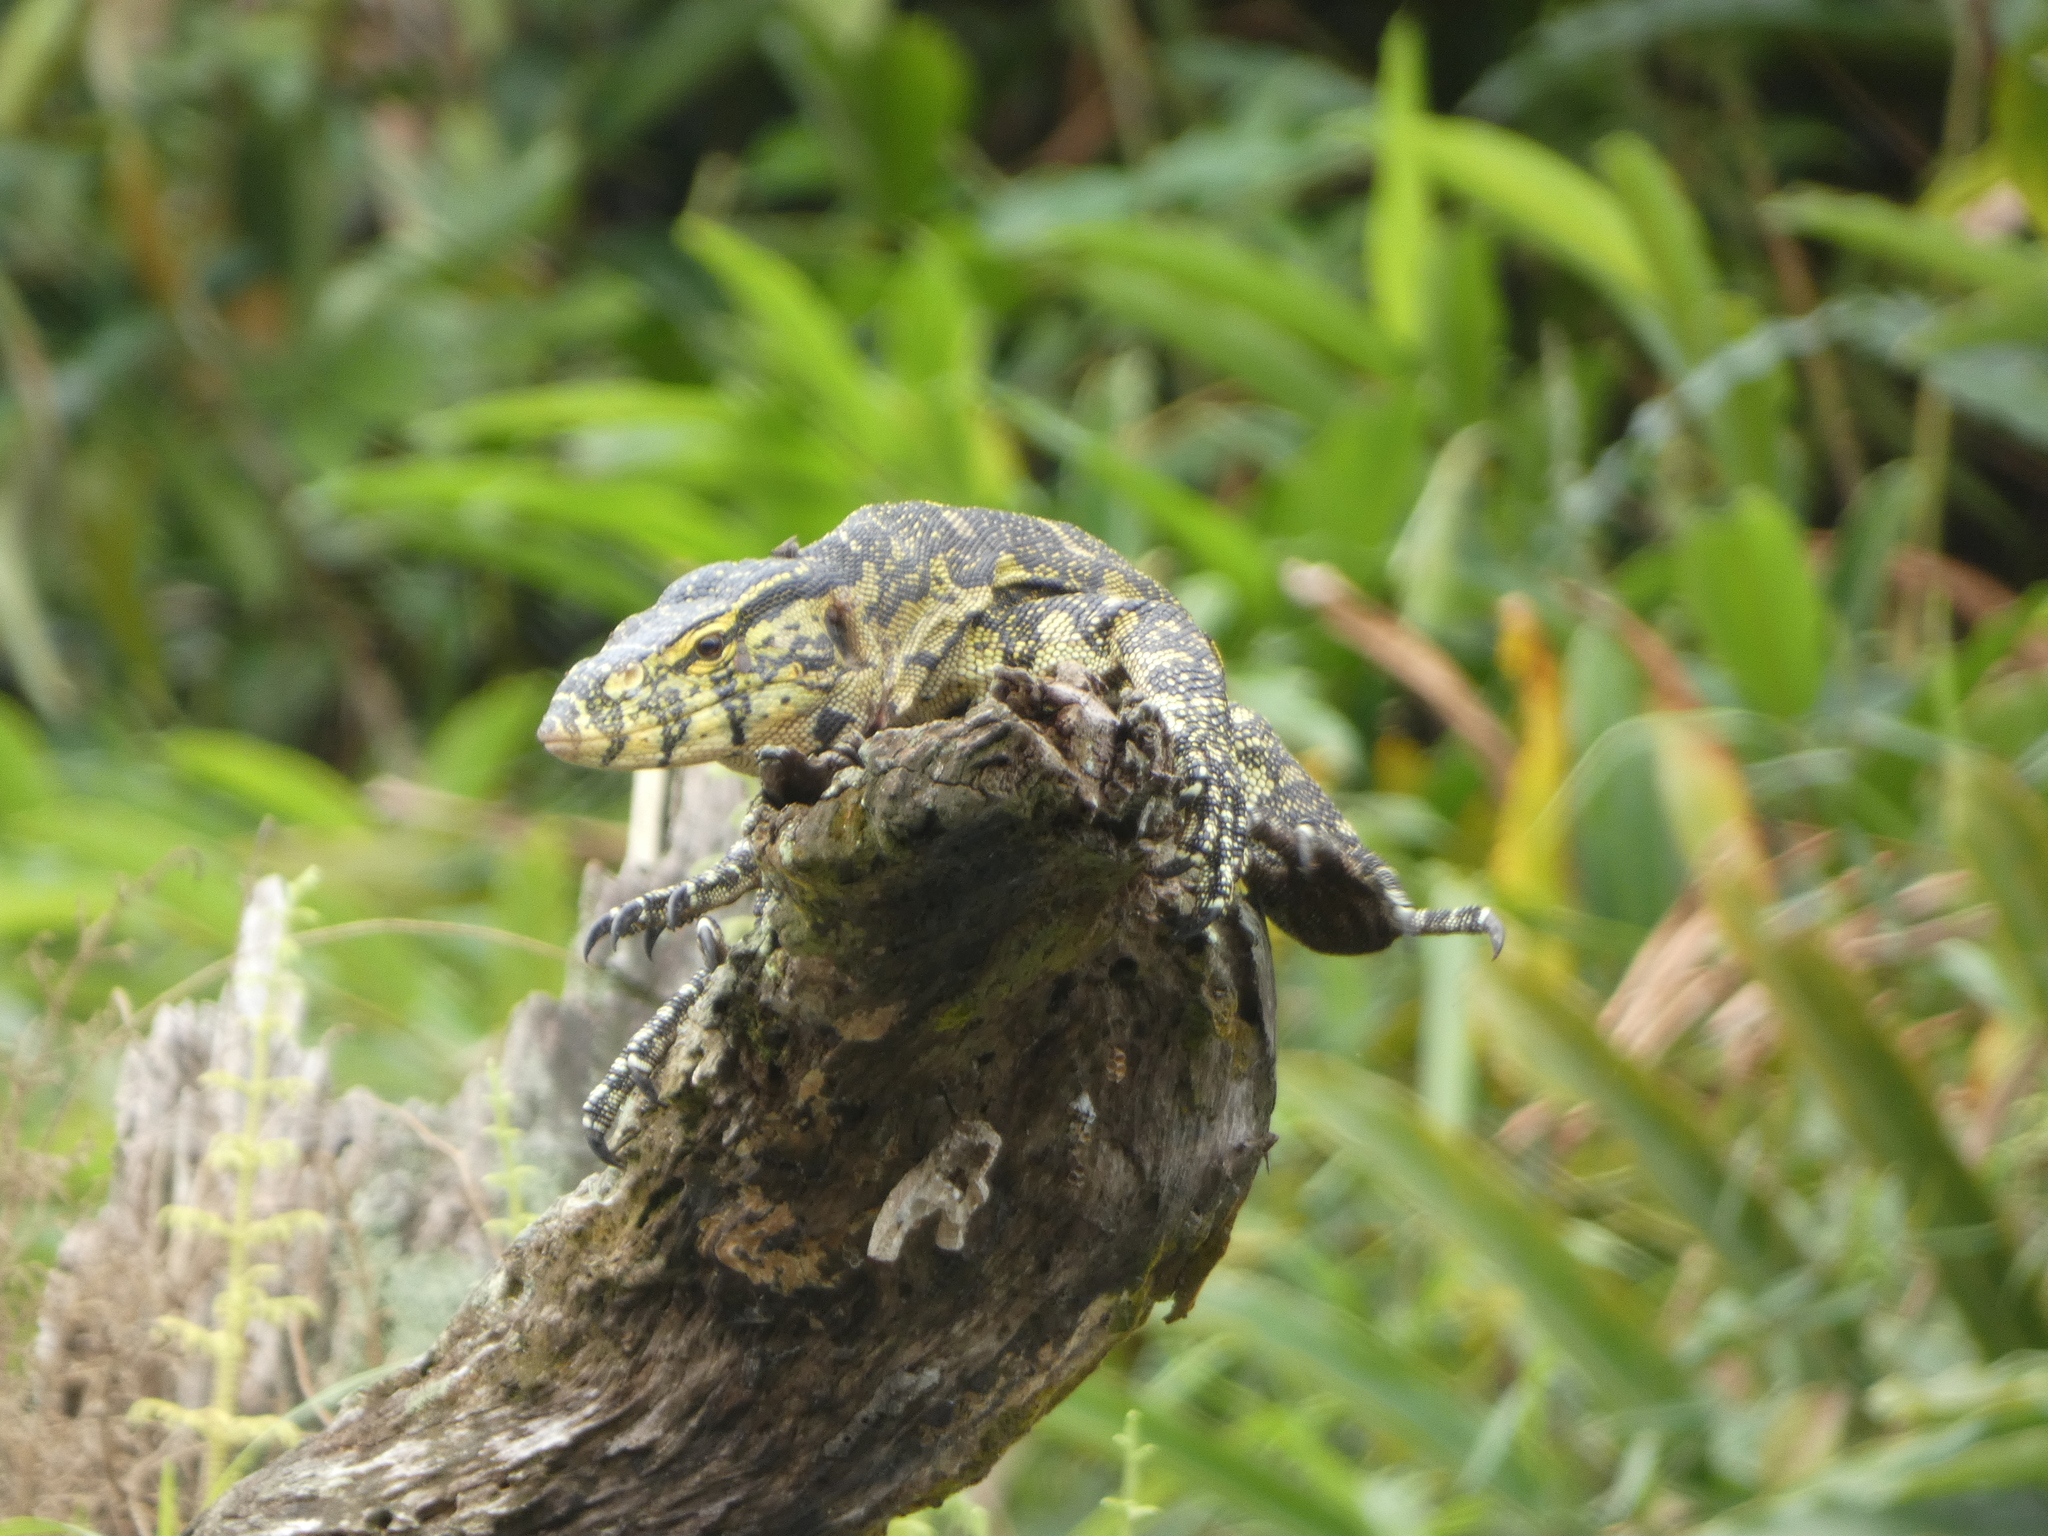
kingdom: Animalia
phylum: Chordata
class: Squamata
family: Varanidae
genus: Varanus
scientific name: Varanus niloticus
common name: Nile monitor
